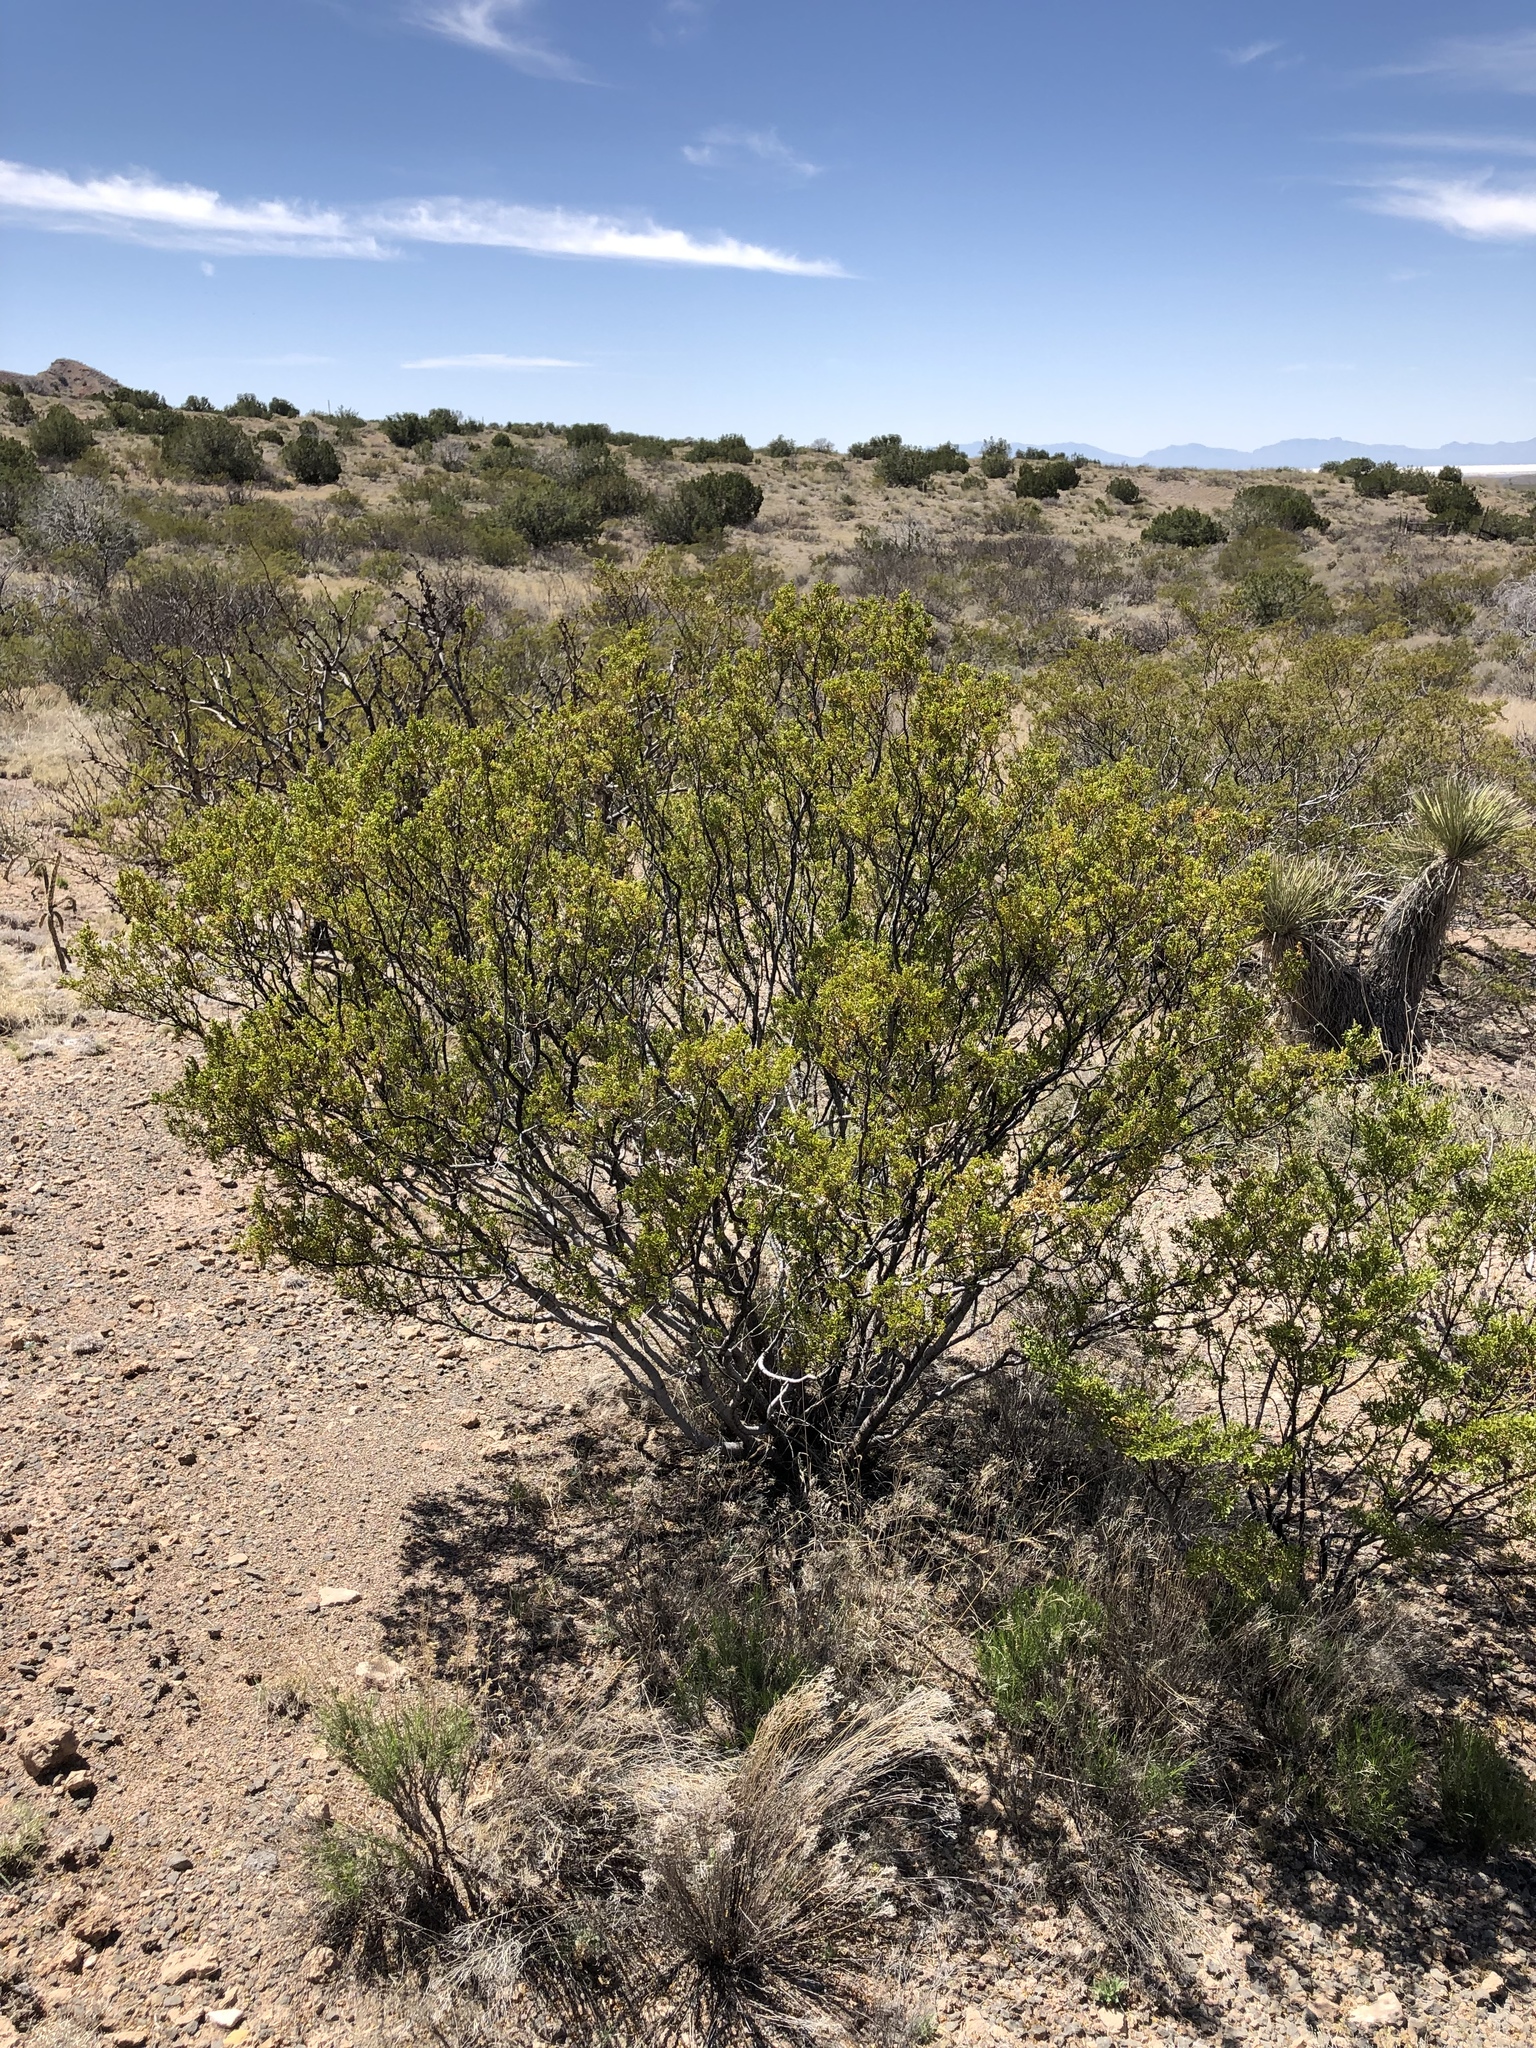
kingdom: Plantae
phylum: Tracheophyta
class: Magnoliopsida
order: Zygophyllales
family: Zygophyllaceae
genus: Larrea
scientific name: Larrea tridentata
